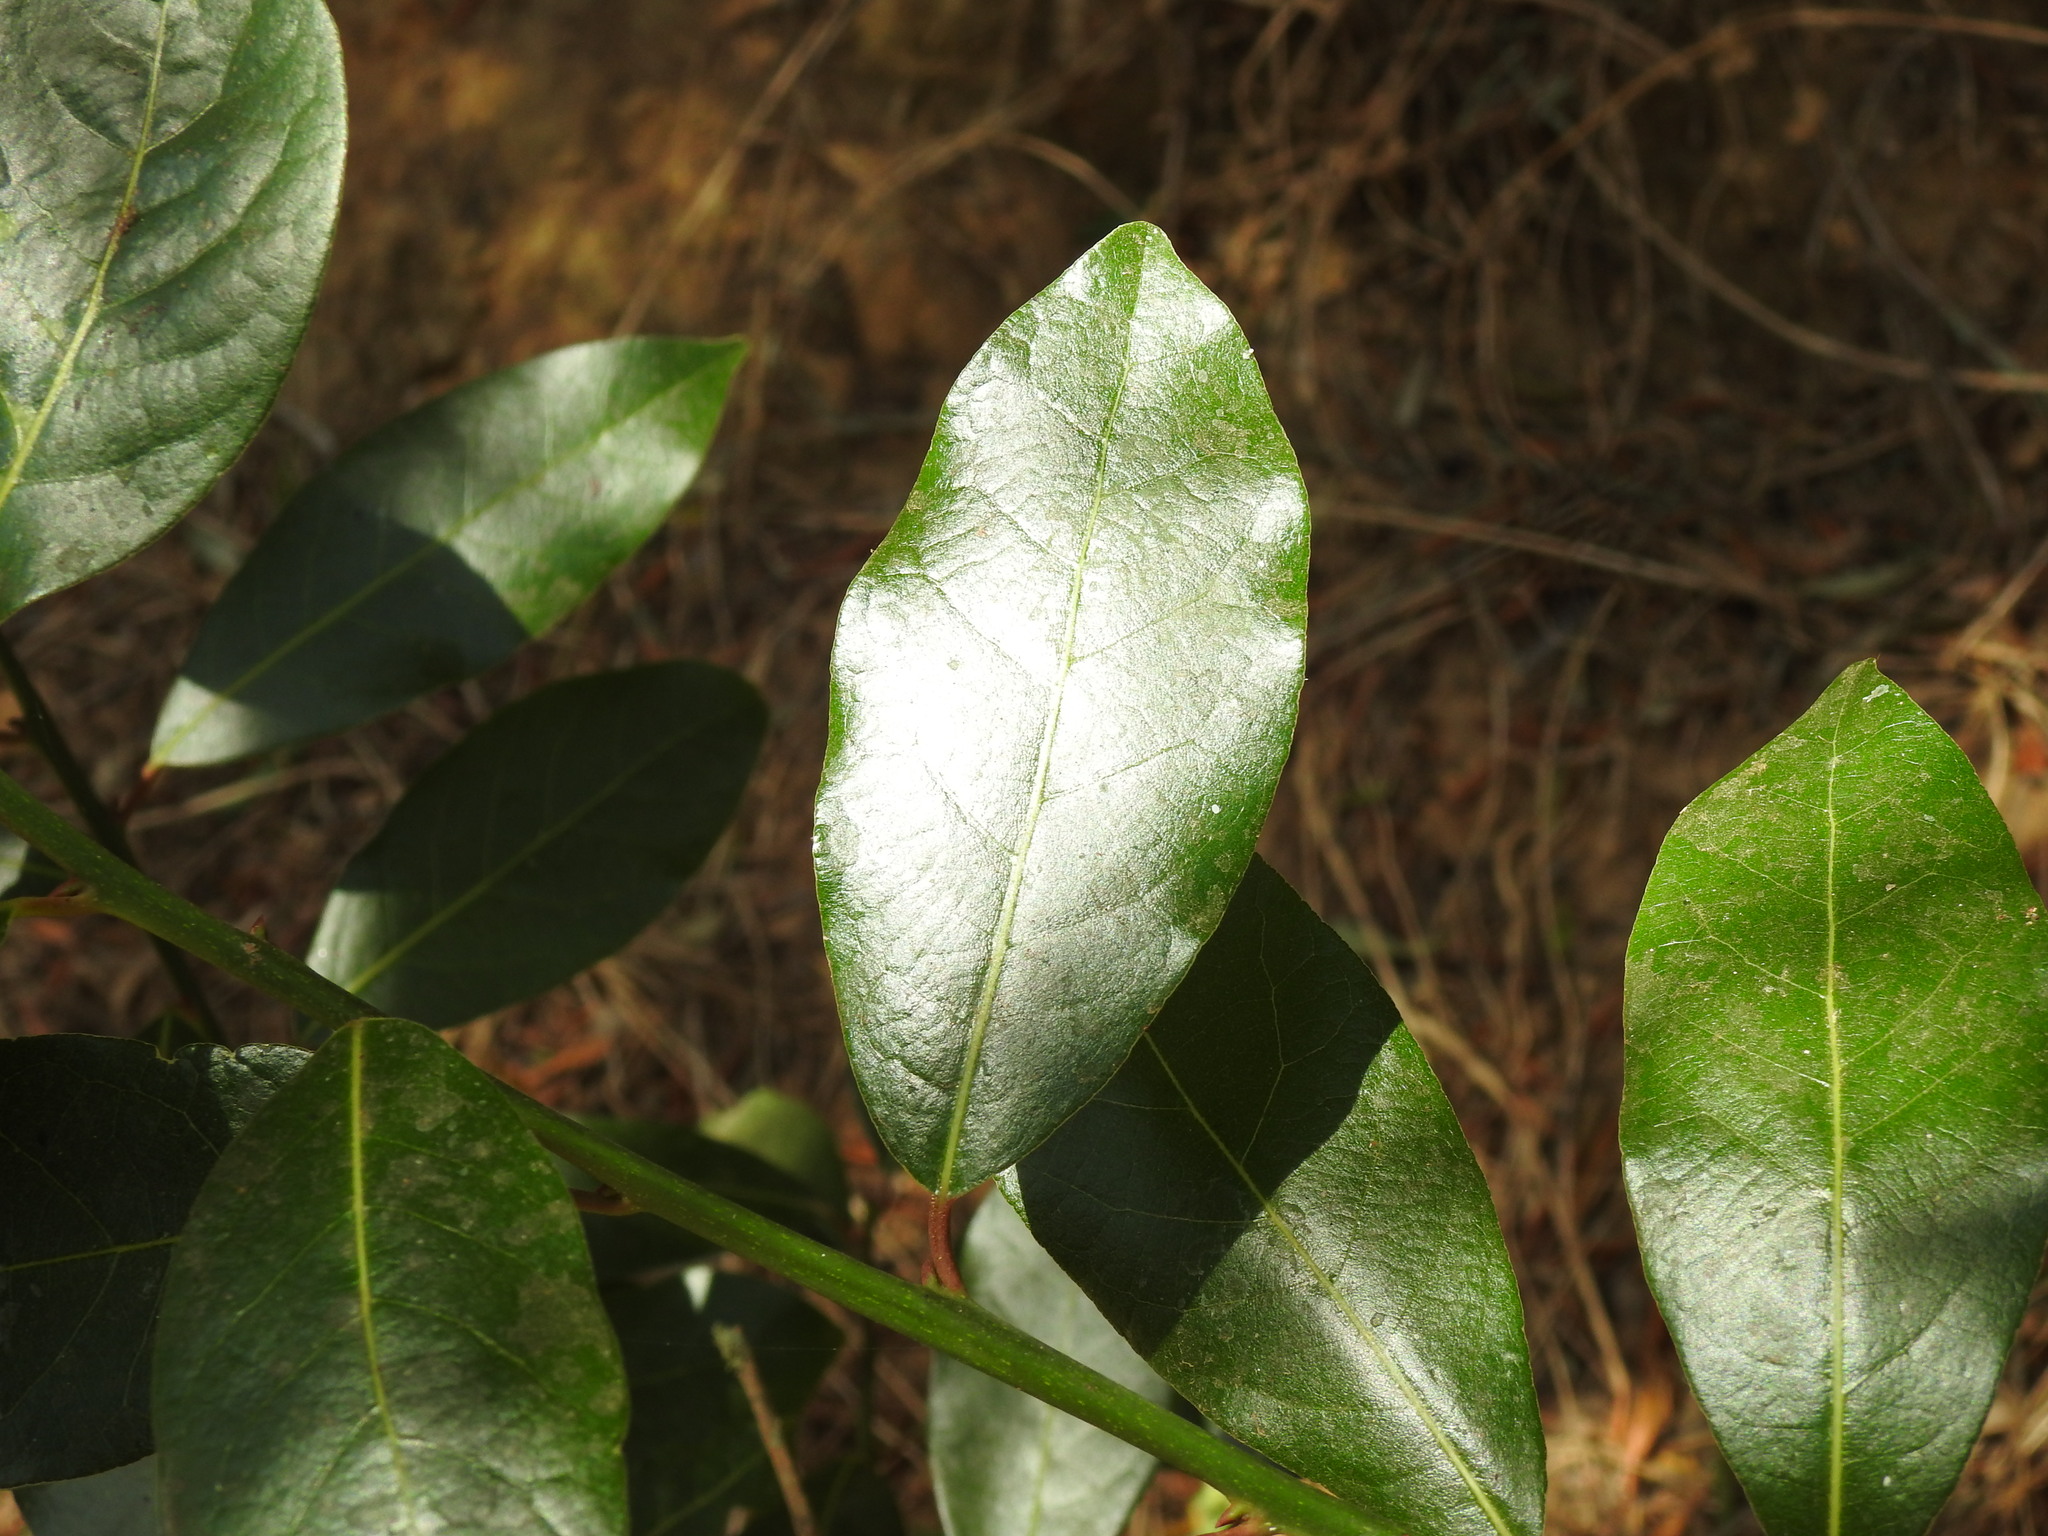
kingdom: Plantae
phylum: Tracheophyta
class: Magnoliopsida
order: Laurales
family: Lauraceae
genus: Laurus
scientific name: Laurus nobilis
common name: Bay
